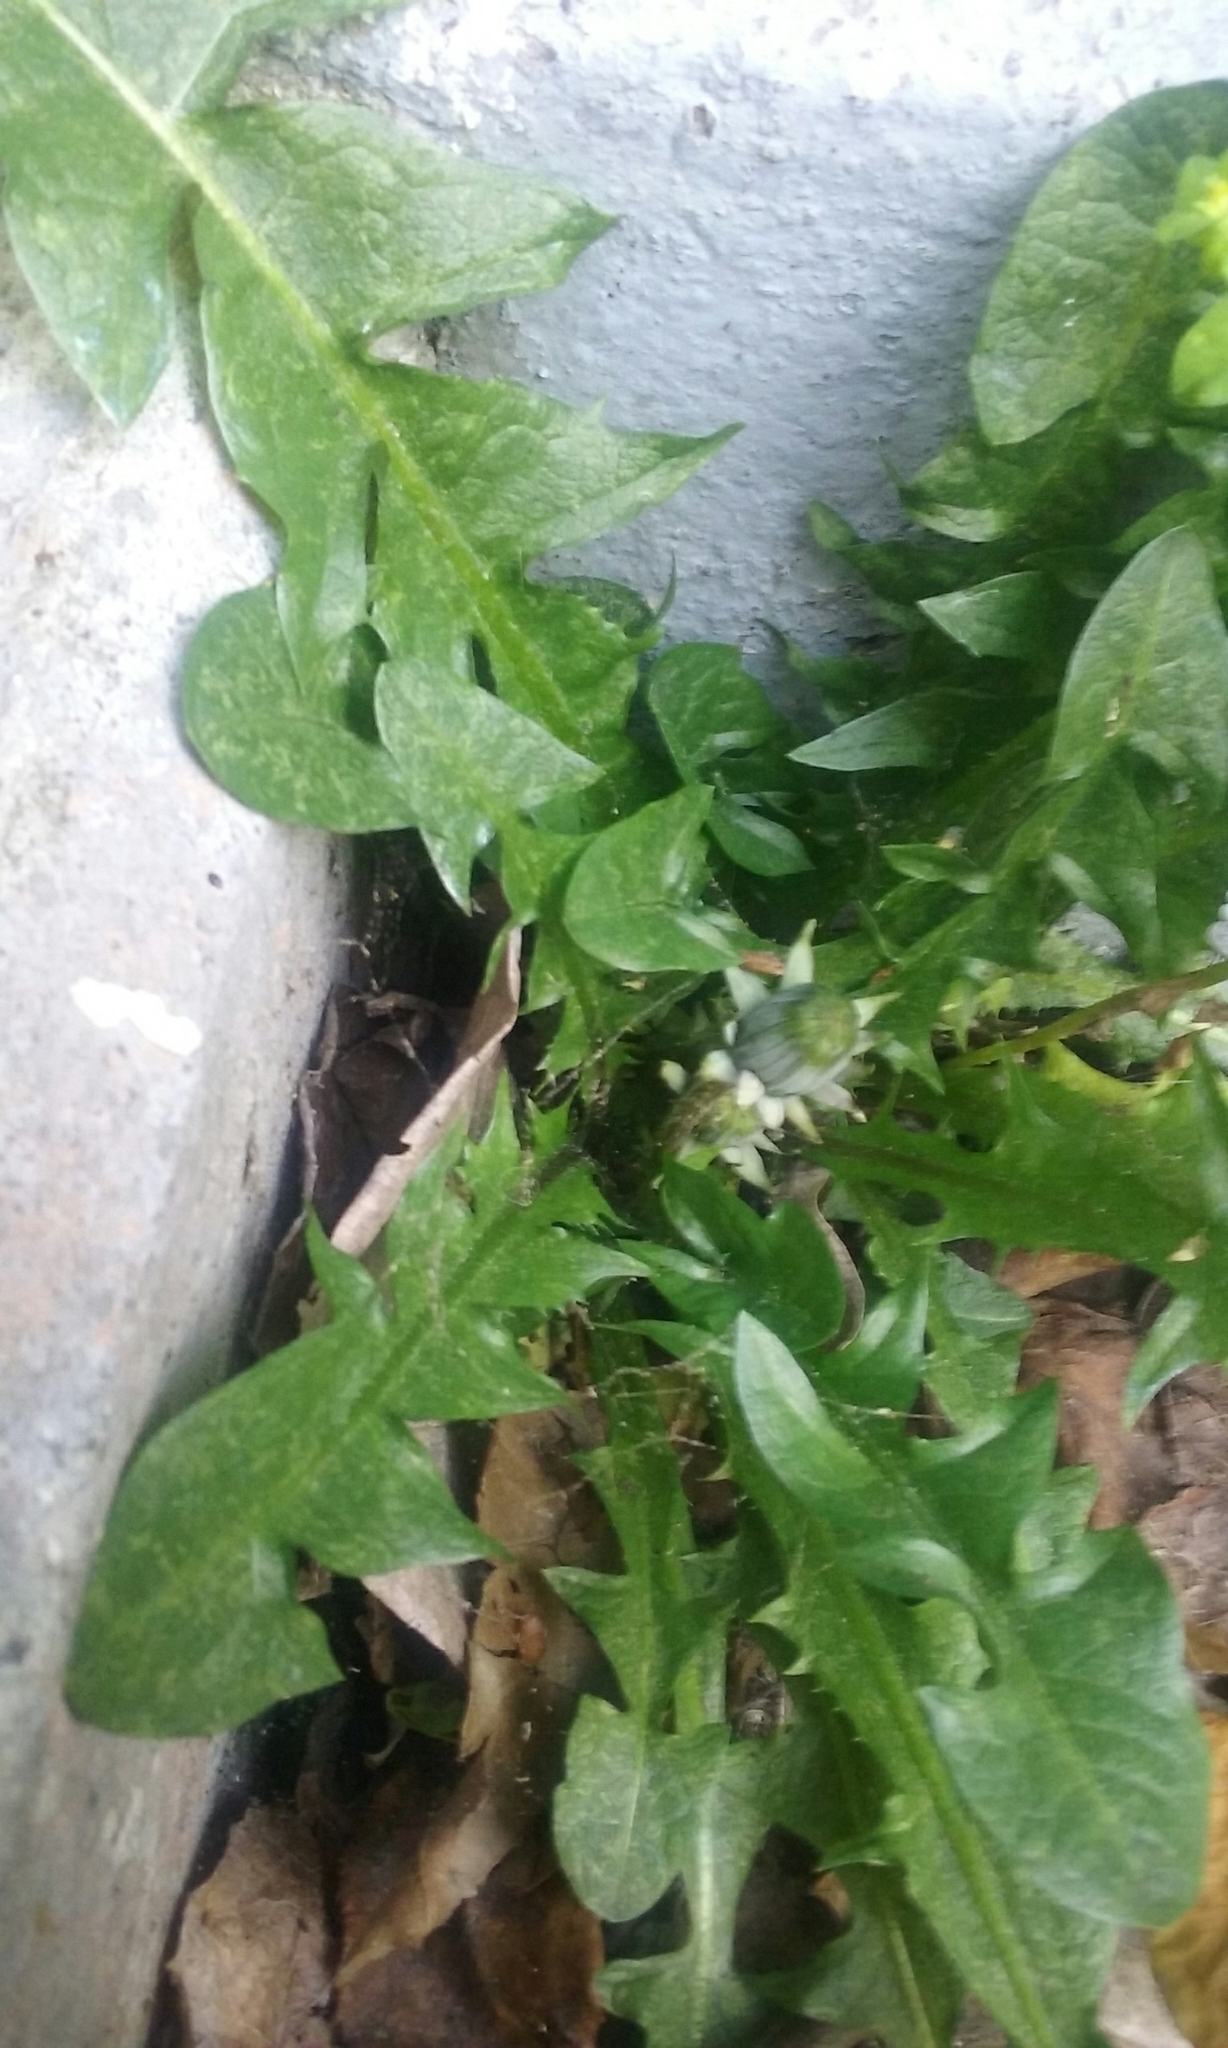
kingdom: Plantae
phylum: Tracheophyta
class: Magnoliopsida
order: Asterales
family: Asteraceae
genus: Taraxacum
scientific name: Taraxacum officinale
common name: Common dandelion
